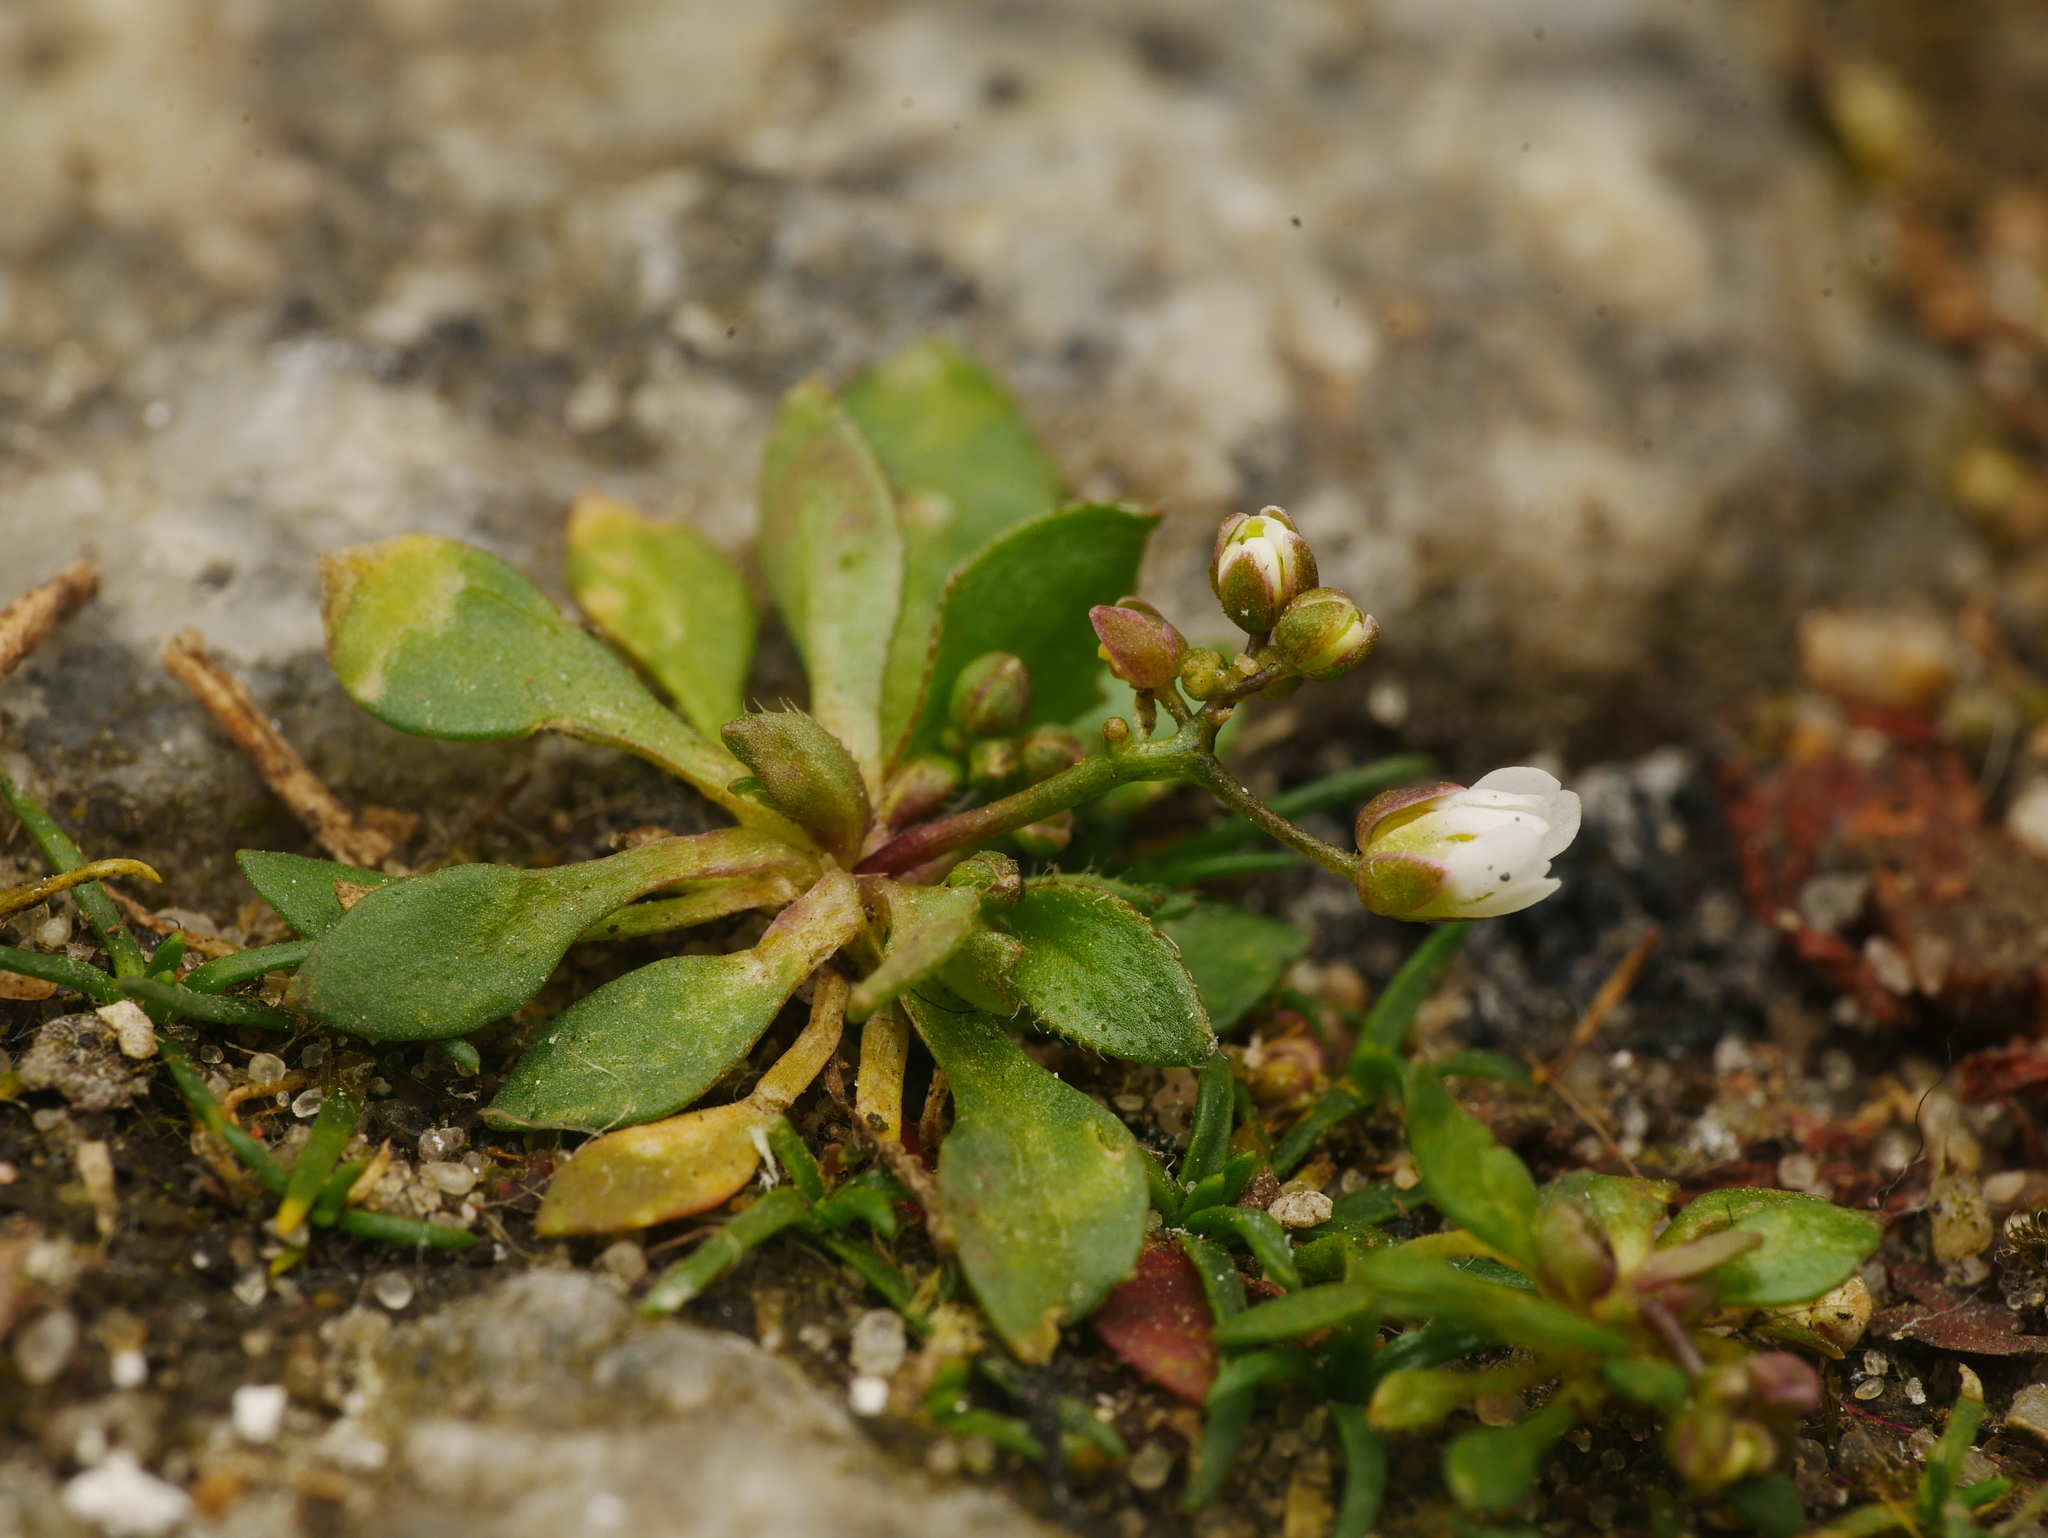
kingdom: Plantae
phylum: Tracheophyta
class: Magnoliopsida
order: Brassicales
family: Brassicaceae
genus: Draba
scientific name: Draba verna
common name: Spring draba
